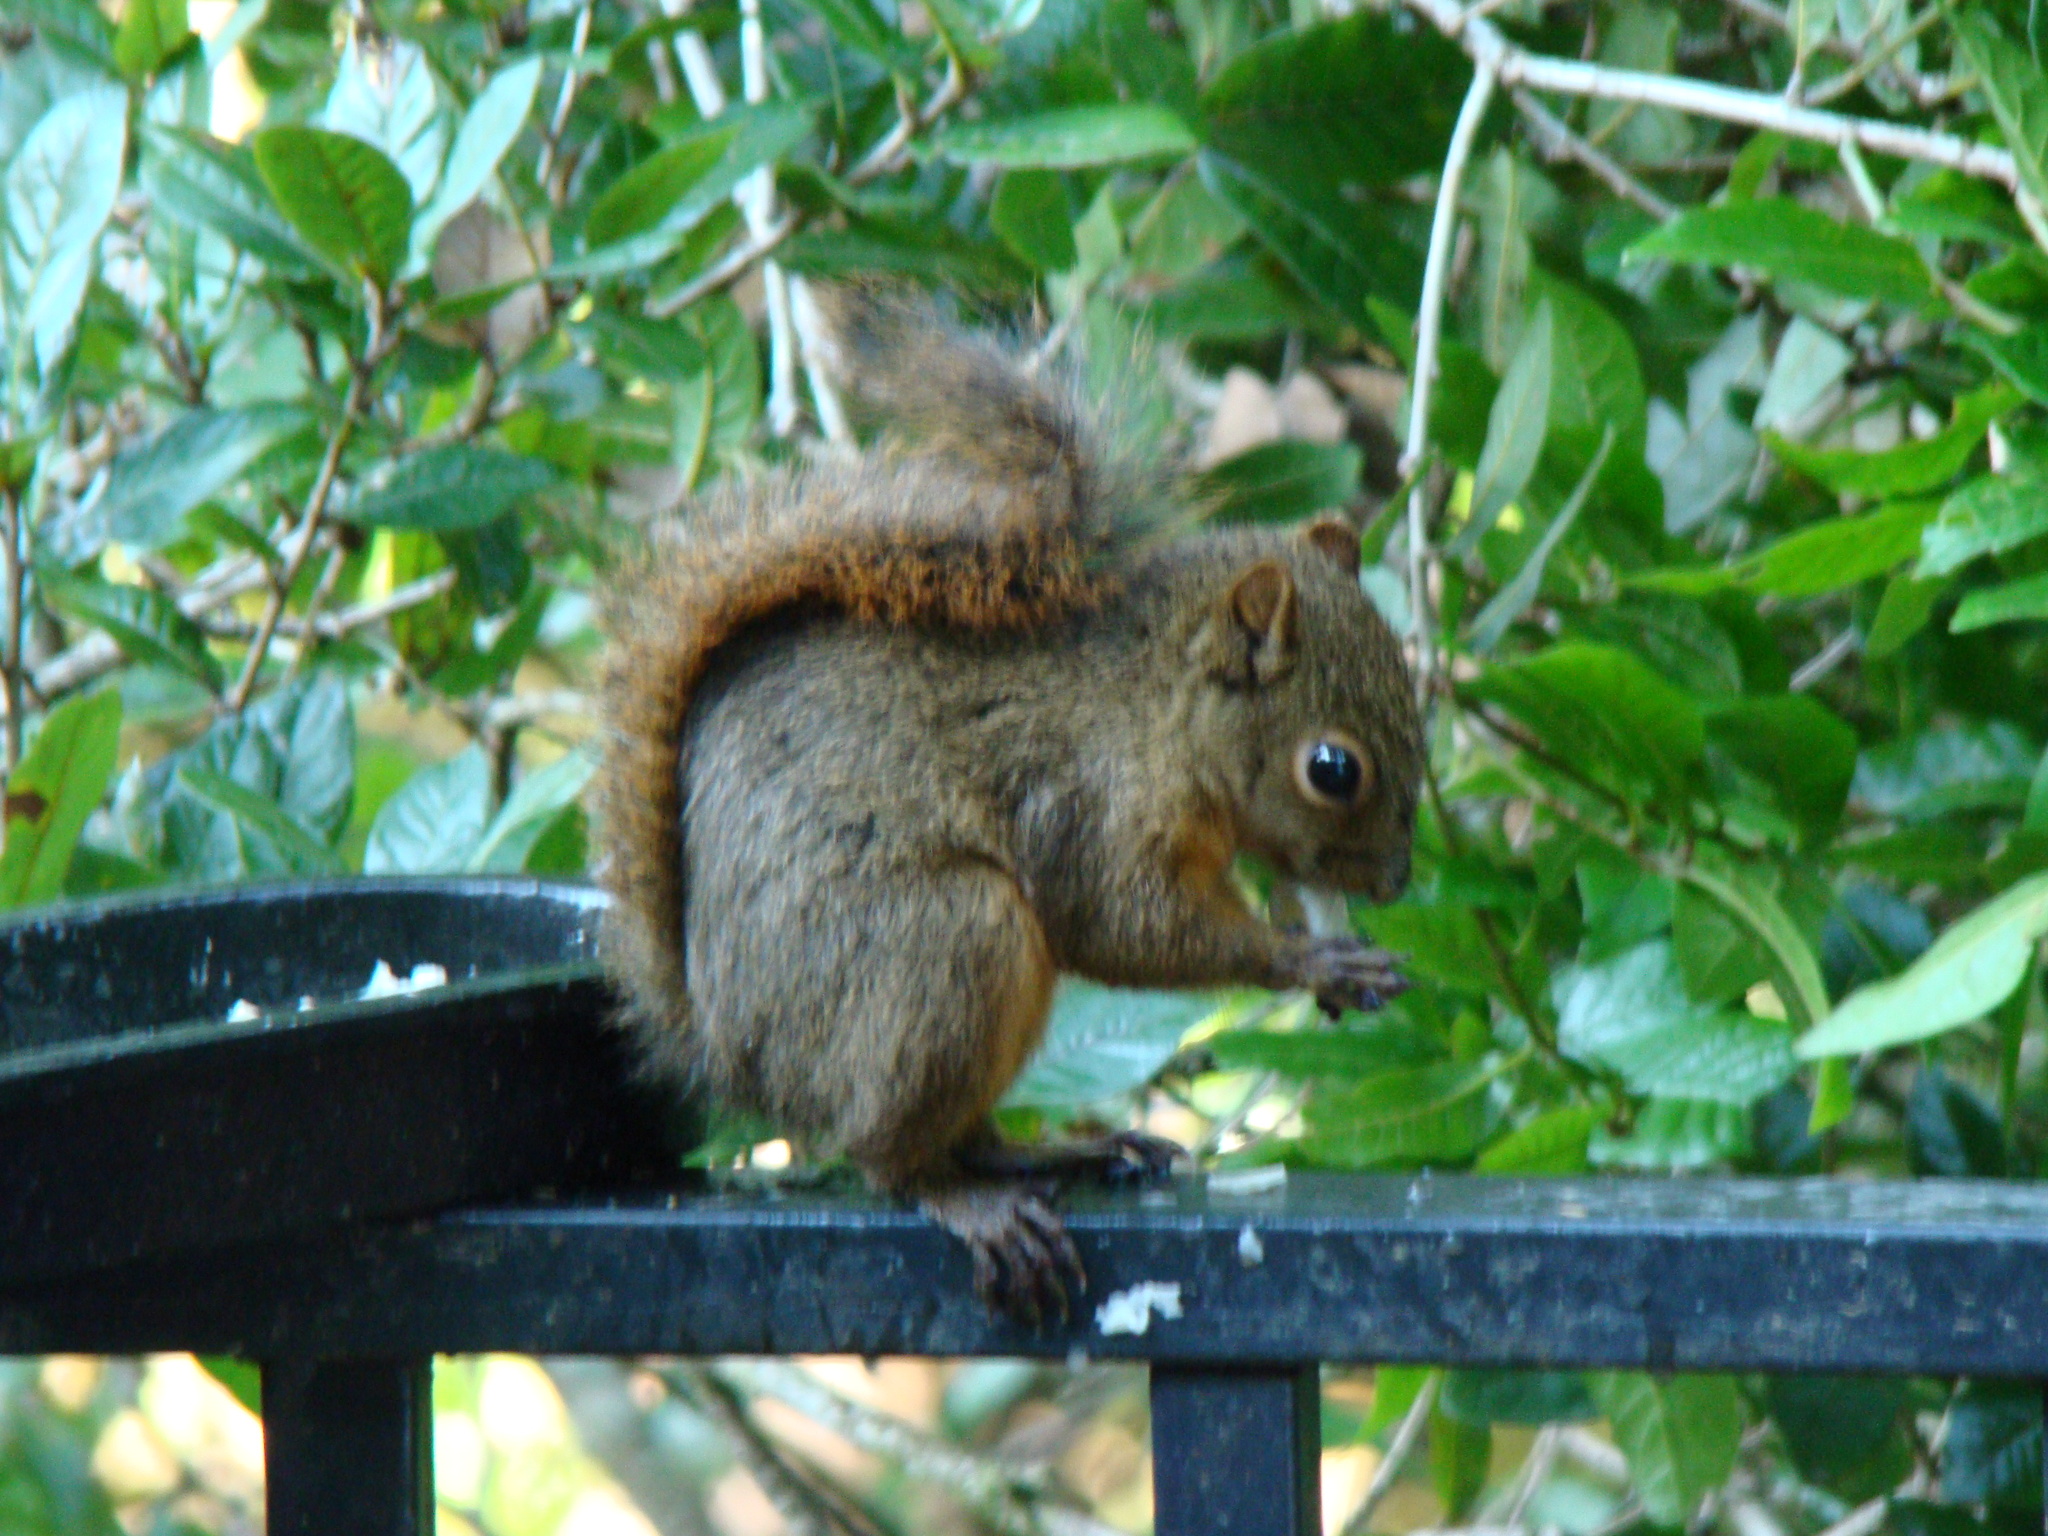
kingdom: Animalia
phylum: Chordata
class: Mammalia
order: Rodentia
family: Sciuridae
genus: Sciurus
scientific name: Sciurus granatensis
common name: Red-tailed squirrel
